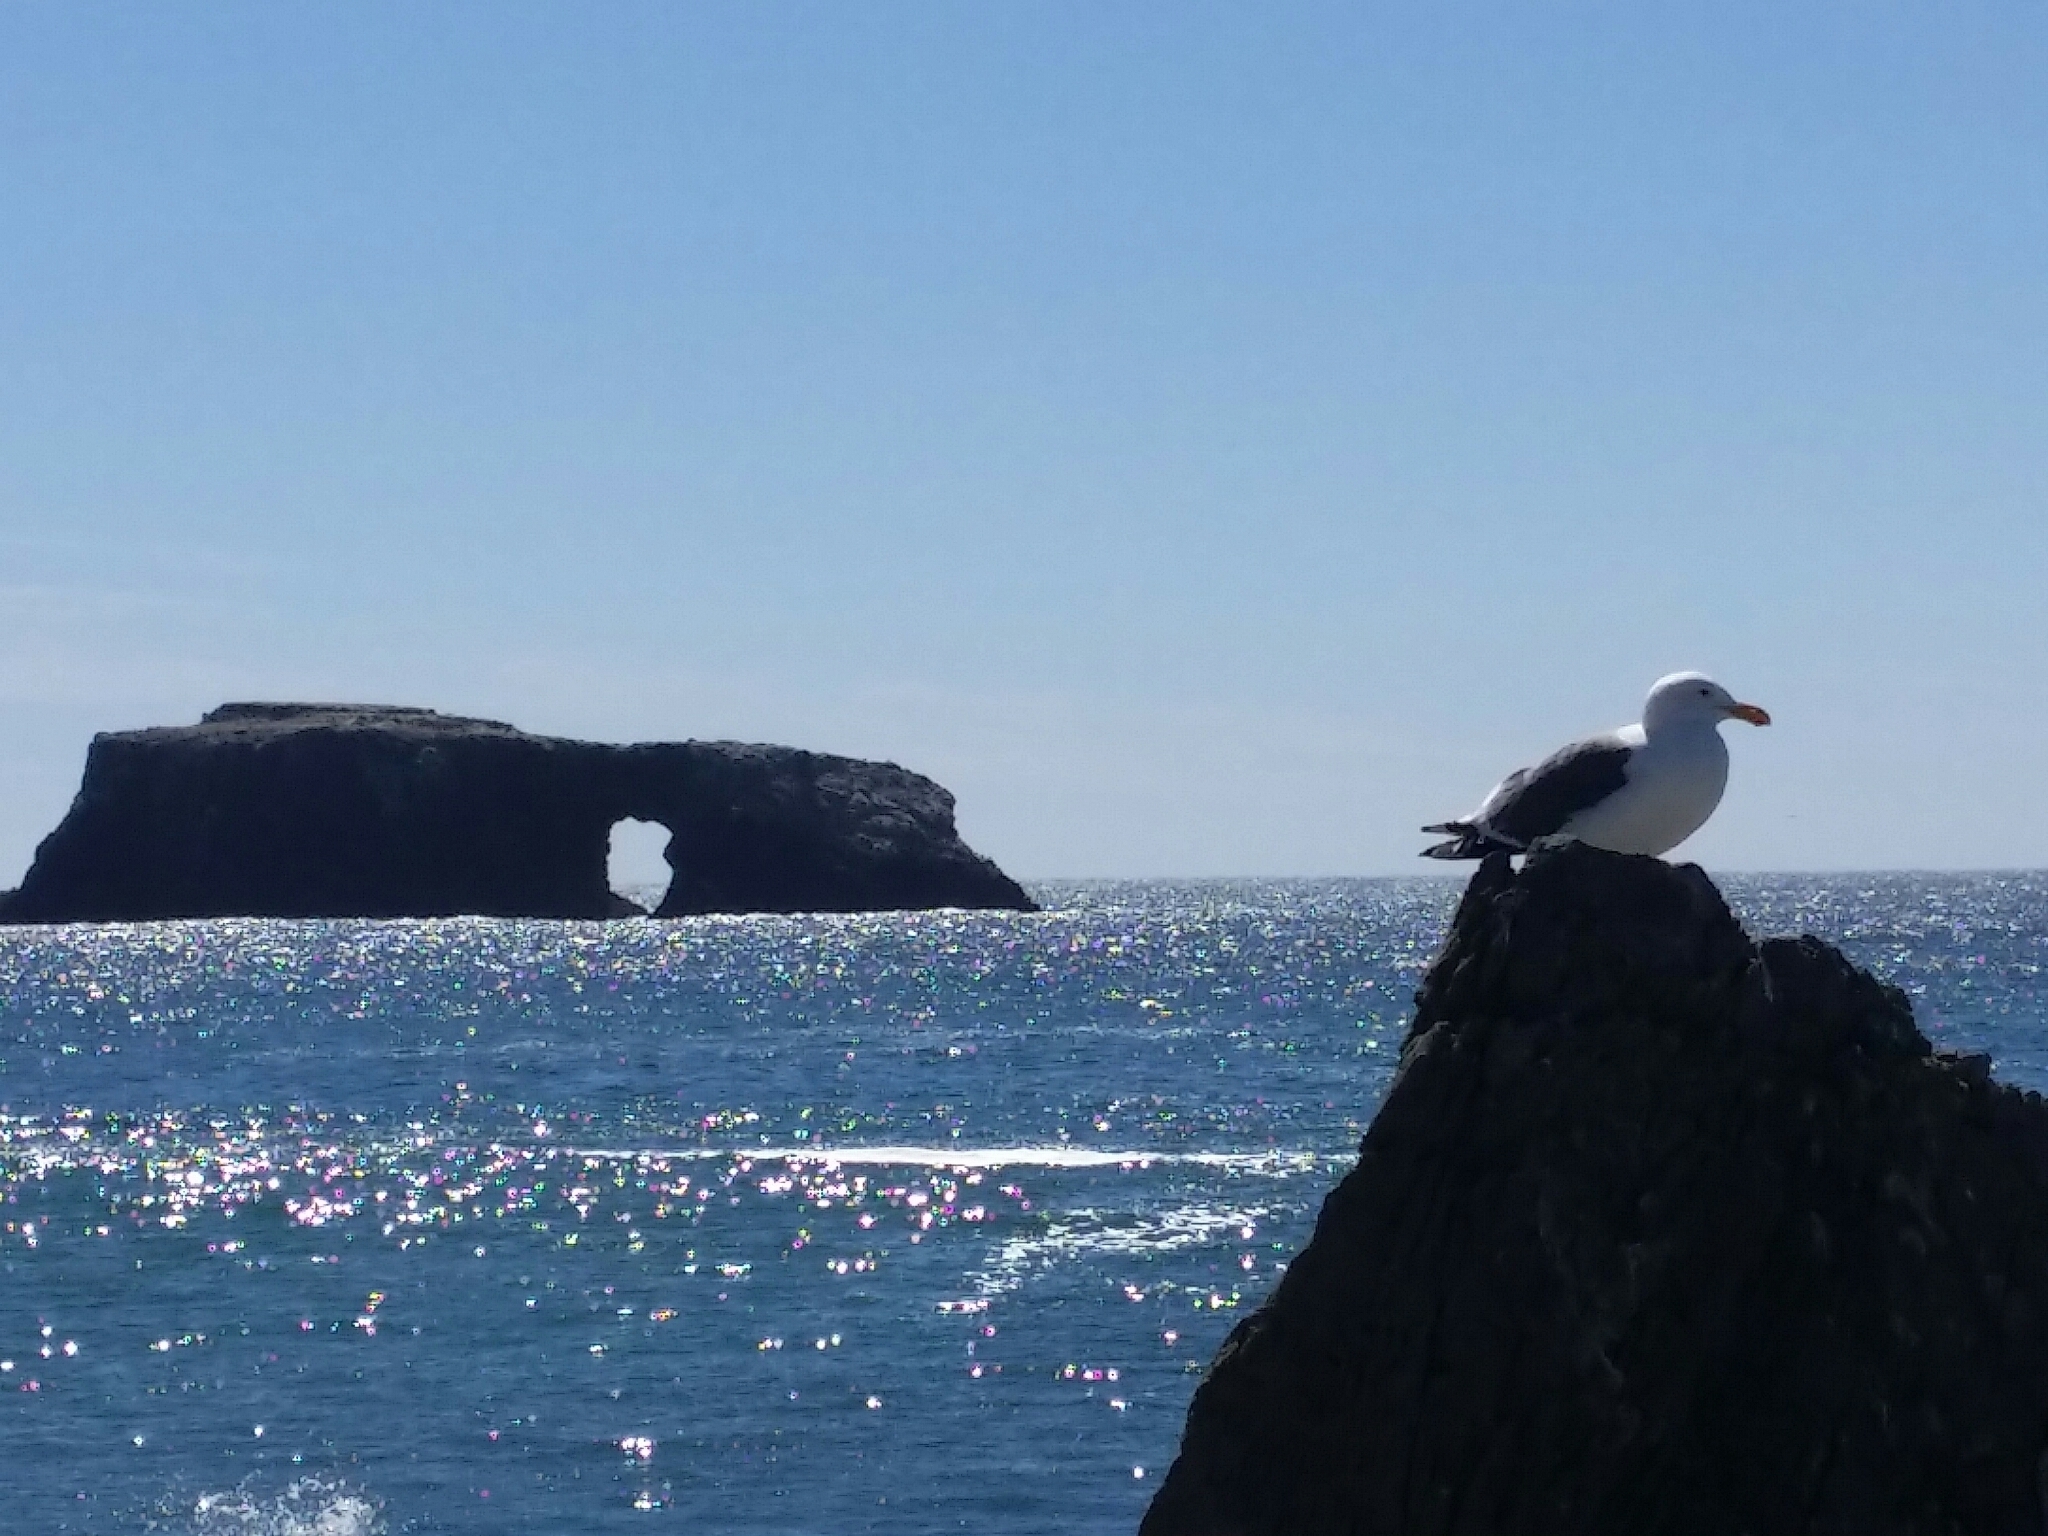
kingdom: Animalia
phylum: Chordata
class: Aves
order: Charadriiformes
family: Laridae
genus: Larus
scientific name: Larus occidentalis
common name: Western gull
